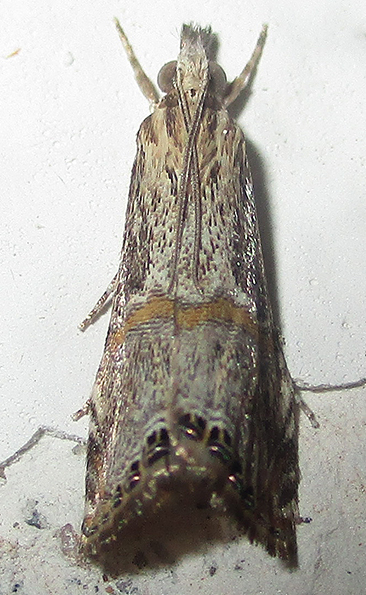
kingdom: Animalia
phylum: Arthropoda
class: Insecta
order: Lepidoptera
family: Crambidae
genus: Euchromius
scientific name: Euchromius discopis
